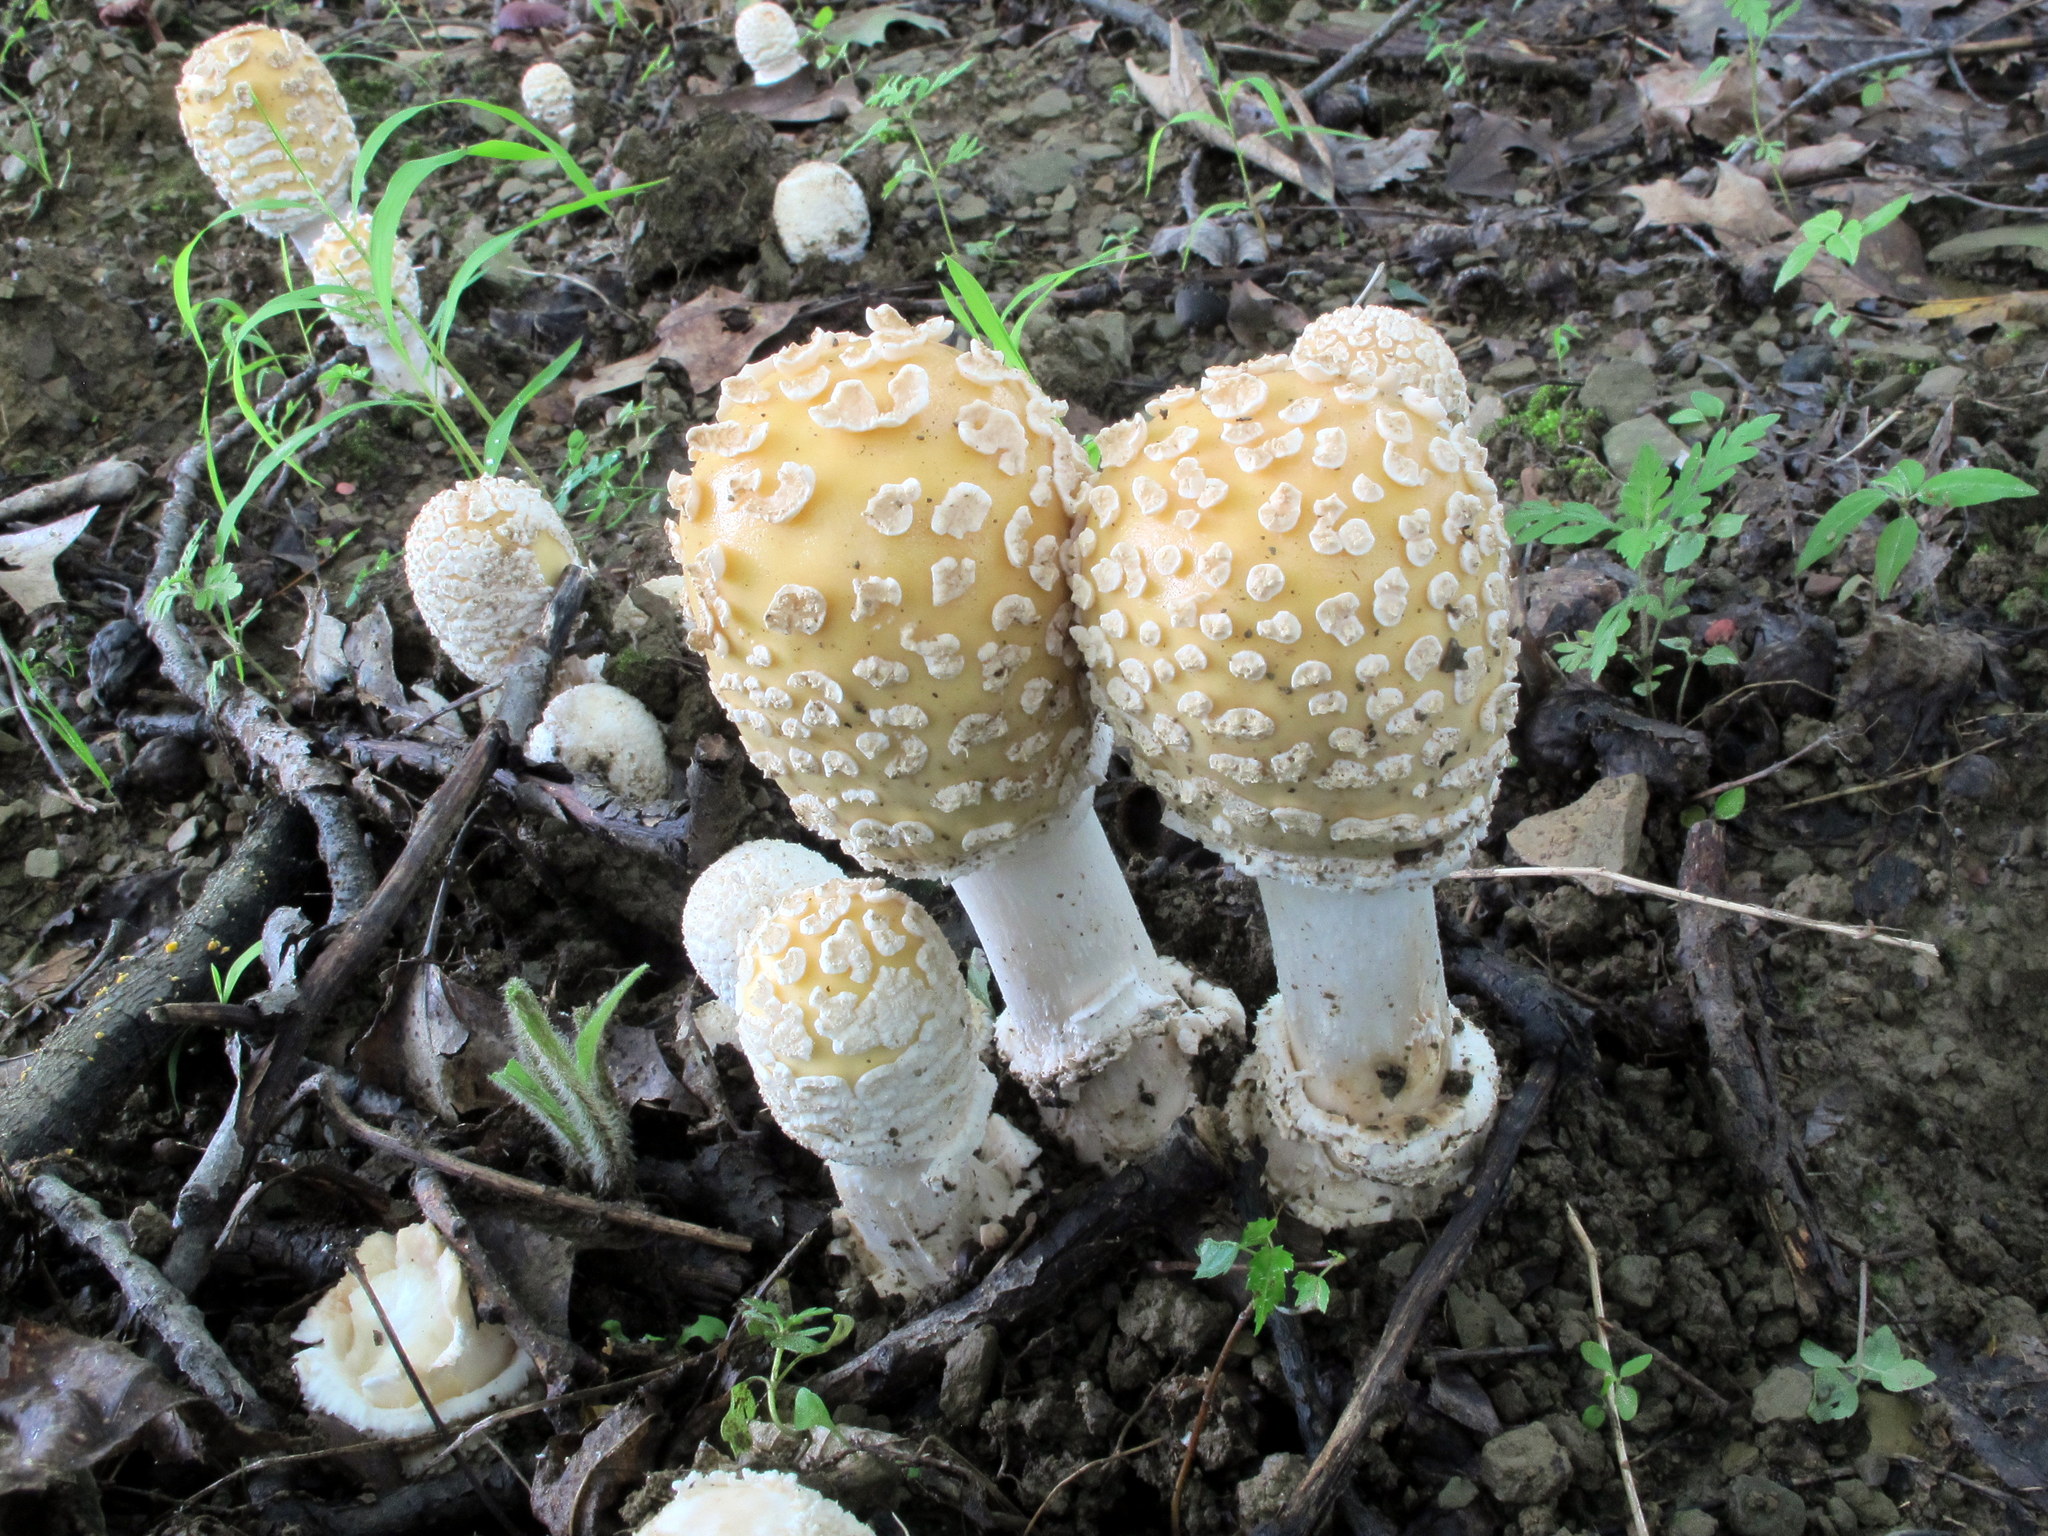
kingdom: Fungi
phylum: Basidiomycota
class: Agaricomycetes
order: Agaricales
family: Amanitaceae
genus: Amanita
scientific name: Amanita velatipes
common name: Great funnel-veil amanita
